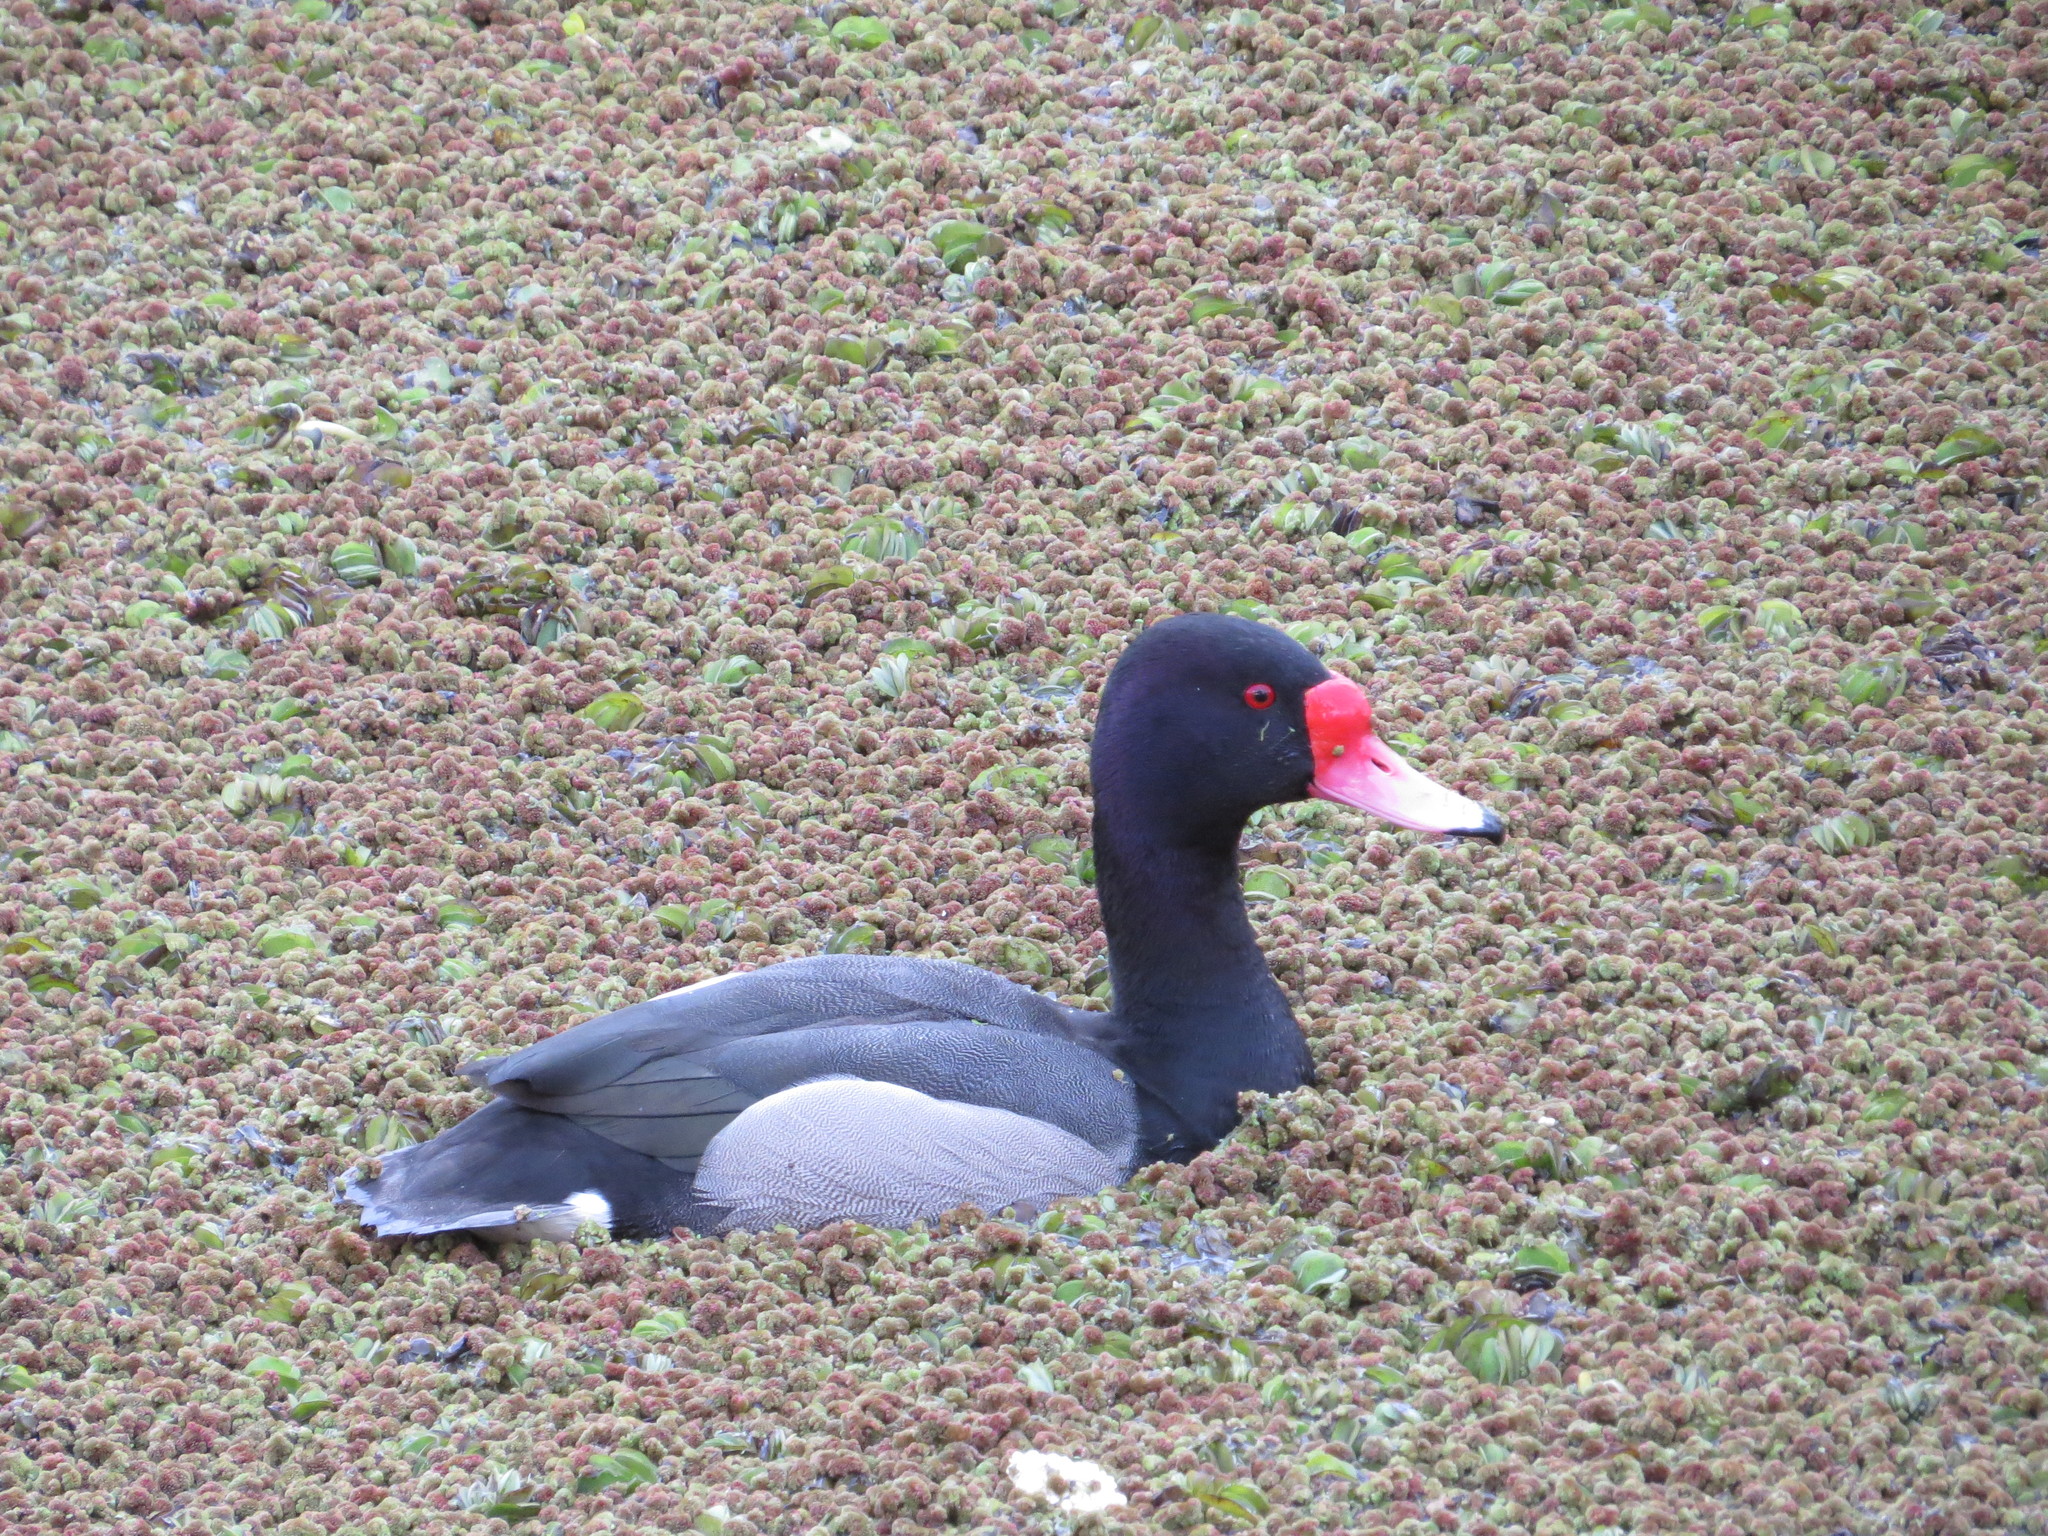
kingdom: Animalia
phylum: Chordata
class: Aves
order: Anseriformes
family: Anatidae
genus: Netta
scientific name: Netta peposaca
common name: Rosy-billed pochard
